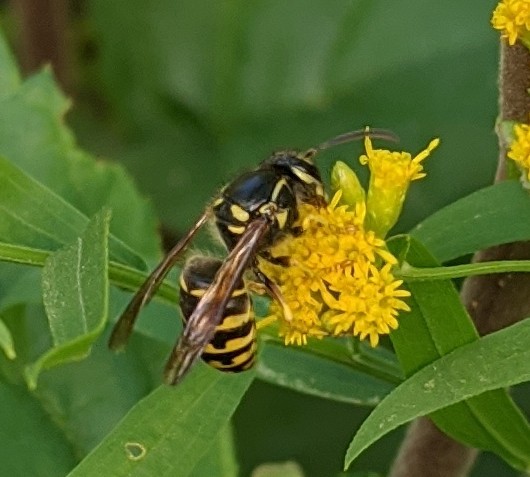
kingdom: Animalia
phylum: Arthropoda
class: Insecta
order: Hymenoptera
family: Vespidae
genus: Dolichovespula
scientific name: Dolichovespula arenaria
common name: Aerial yellowjacket
